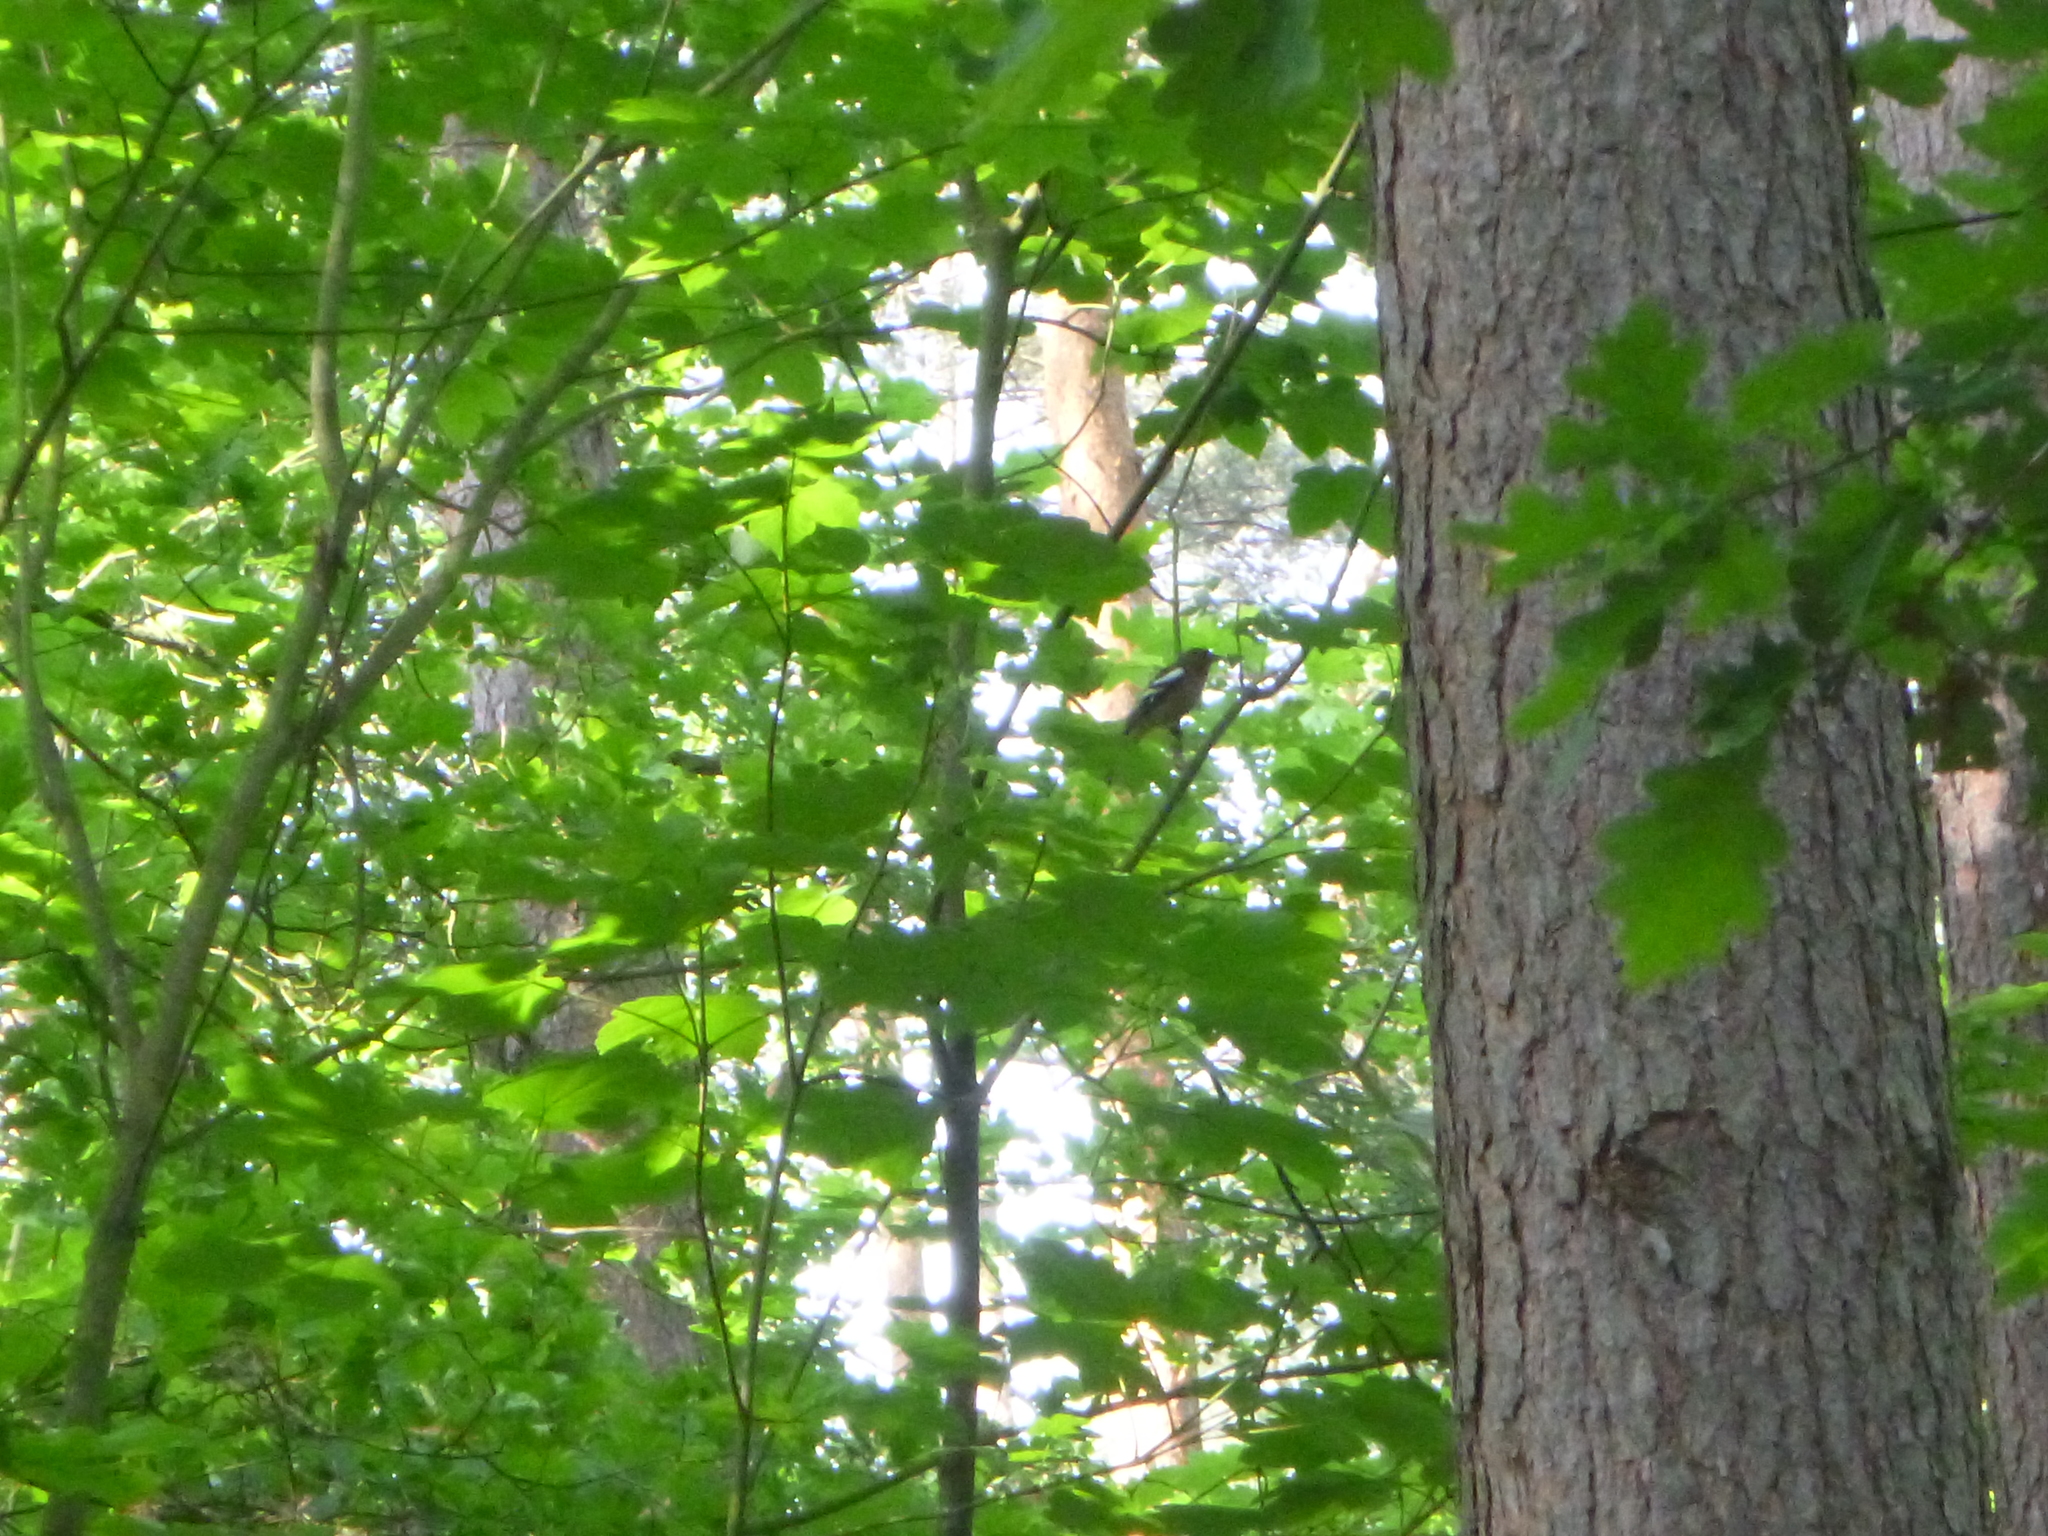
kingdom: Animalia
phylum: Chordata
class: Aves
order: Passeriformes
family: Fringillidae
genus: Fringilla
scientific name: Fringilla coelebs
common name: Common chaffinch
